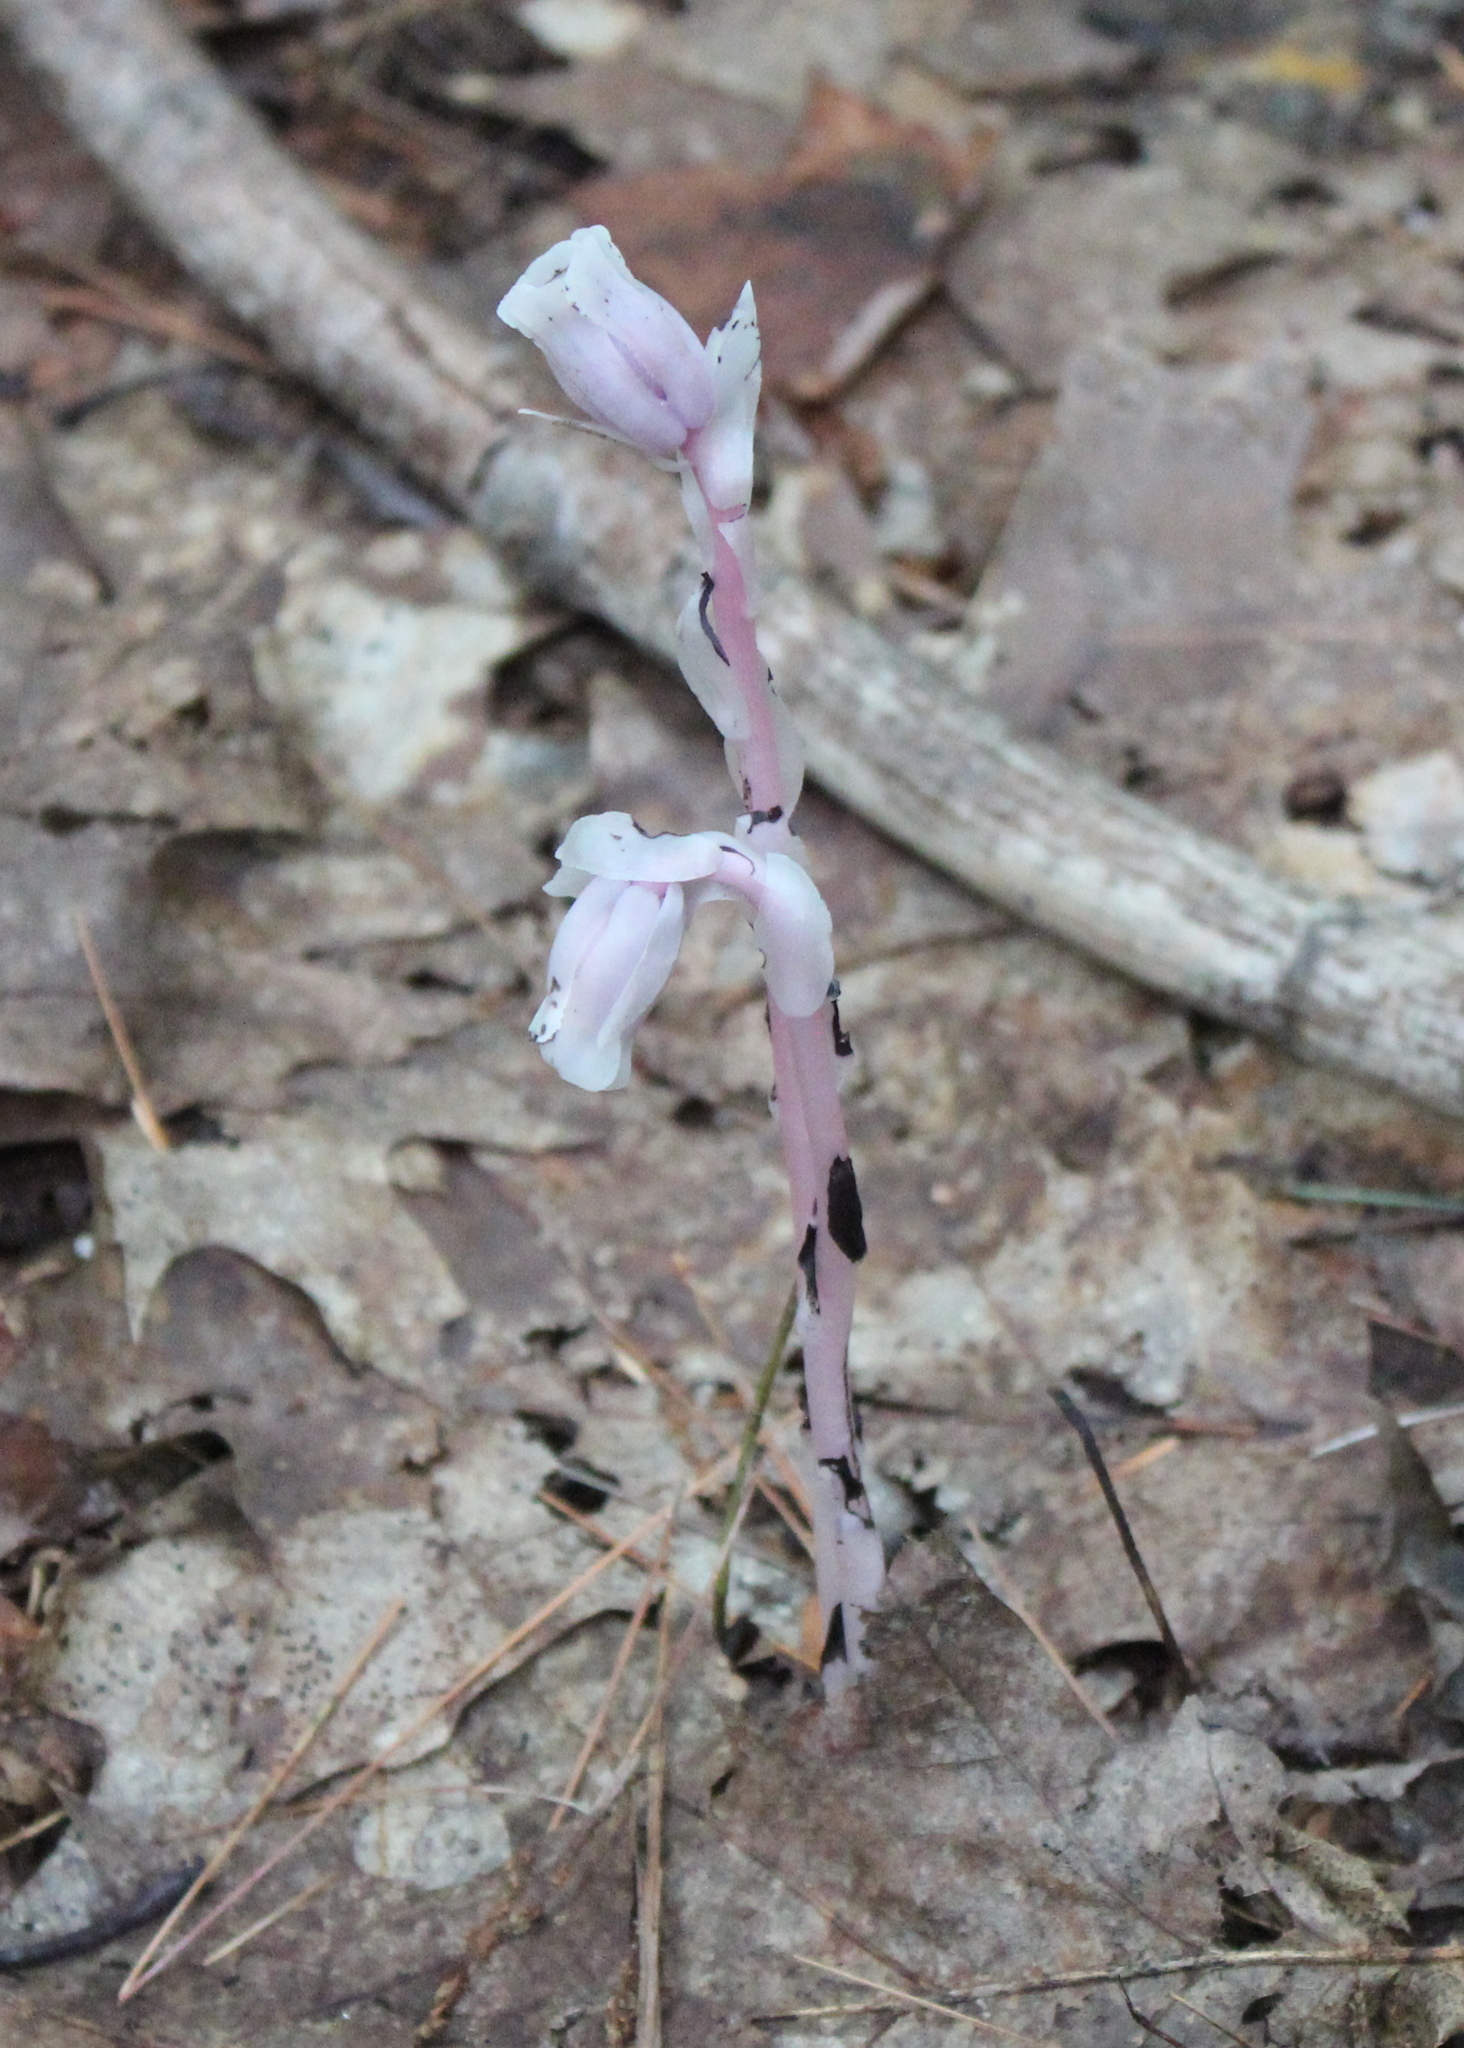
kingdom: Plantae
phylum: Tracheophyta
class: Magnoliopsida
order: Ericales
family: Ericaceae
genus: Monotropa
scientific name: Monotropa uniflora
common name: Convulsion root
